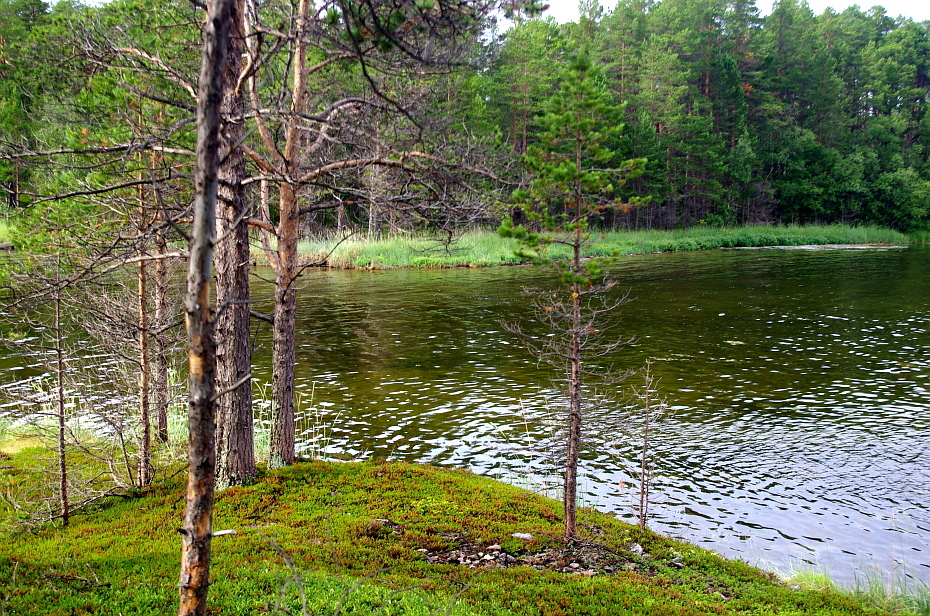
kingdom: Plantae
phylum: Tracheophyta
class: Pinopsida
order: Pinales
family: Pinaceae
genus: Pinus
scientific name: Pinus sylvestris
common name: Scots pine
